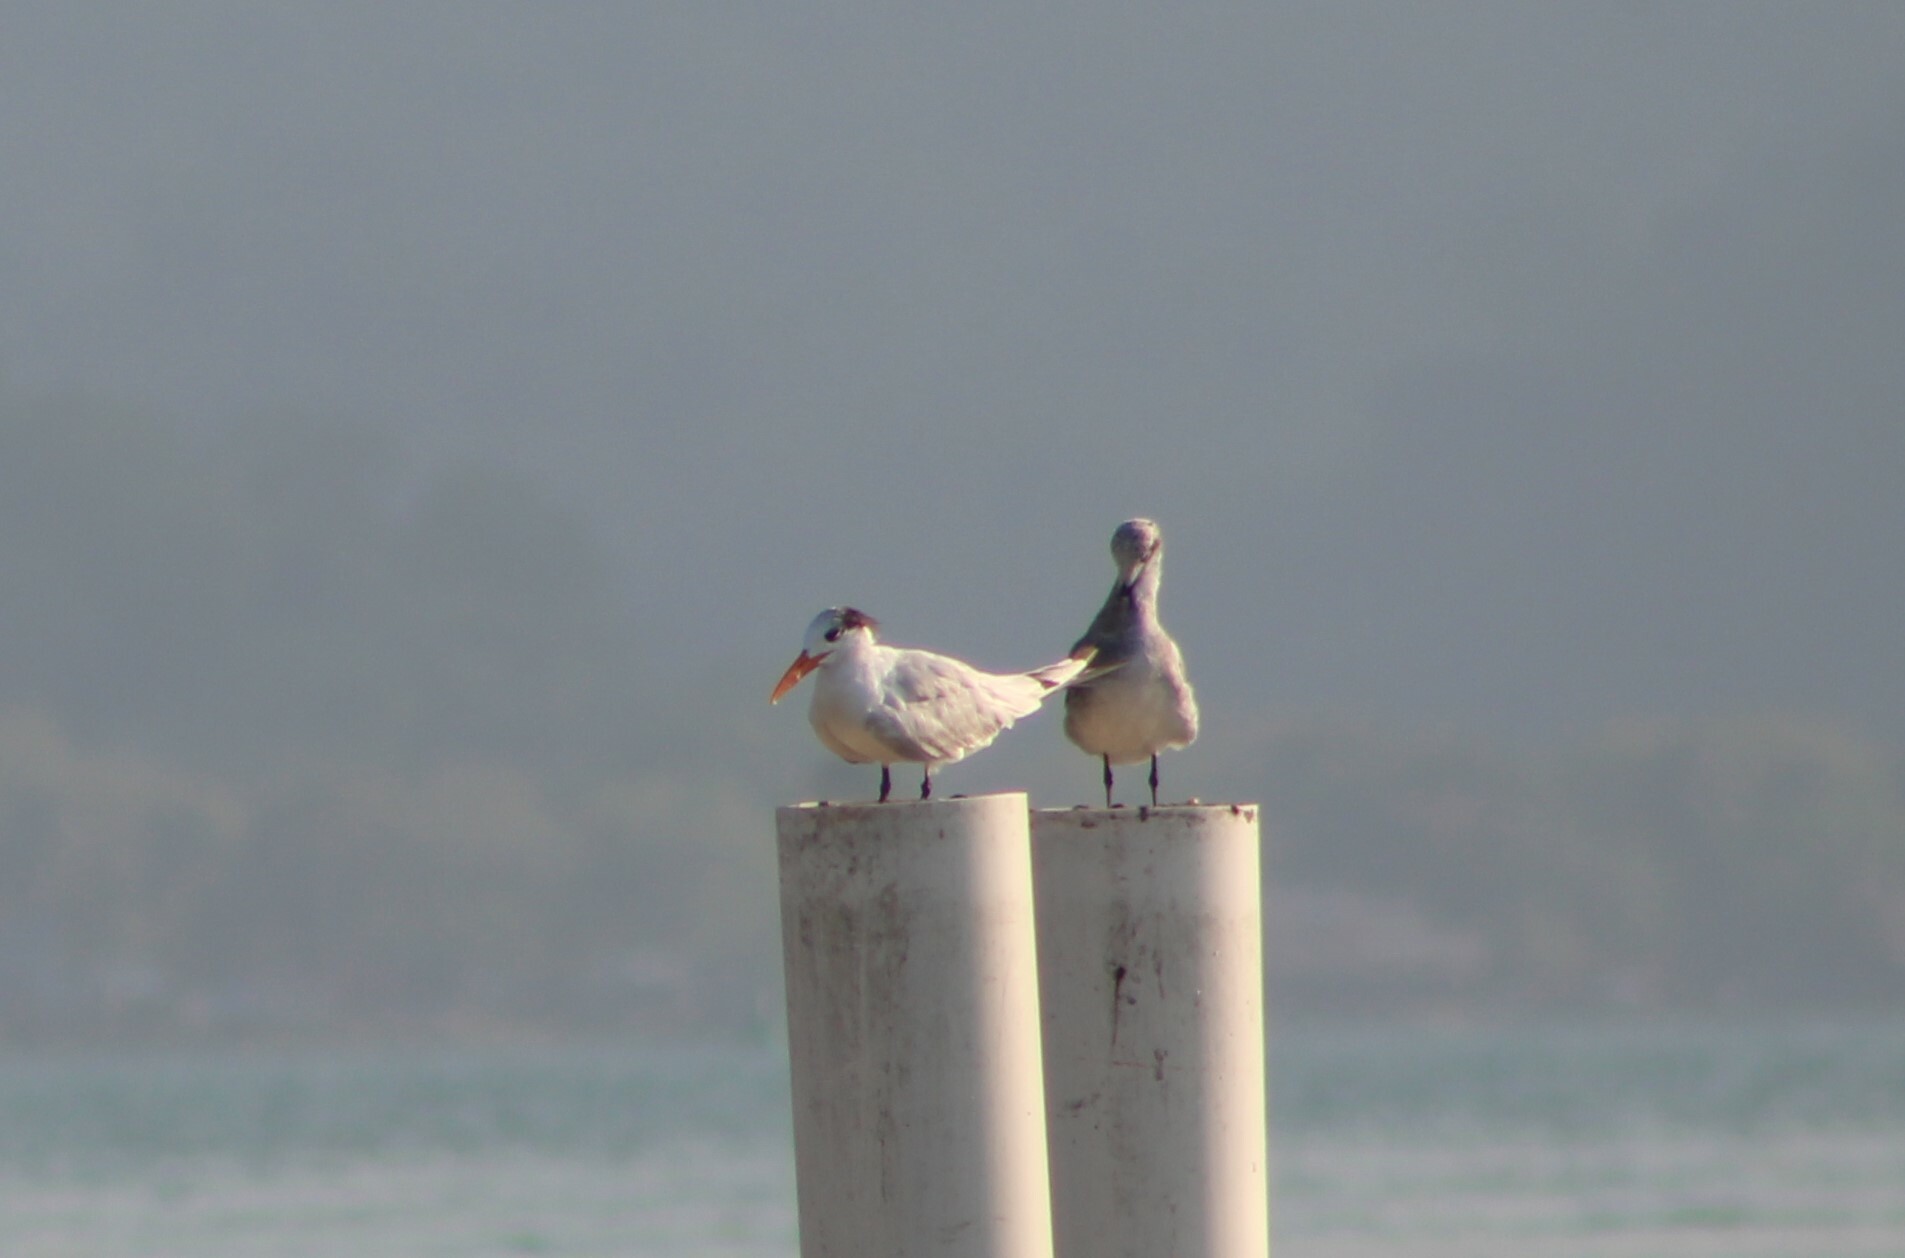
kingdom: Animalia
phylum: Chordata
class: Aves
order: Charadriiformes
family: Laridae
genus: Thalasseus
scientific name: Thalasseus maximus
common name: Royal tern
